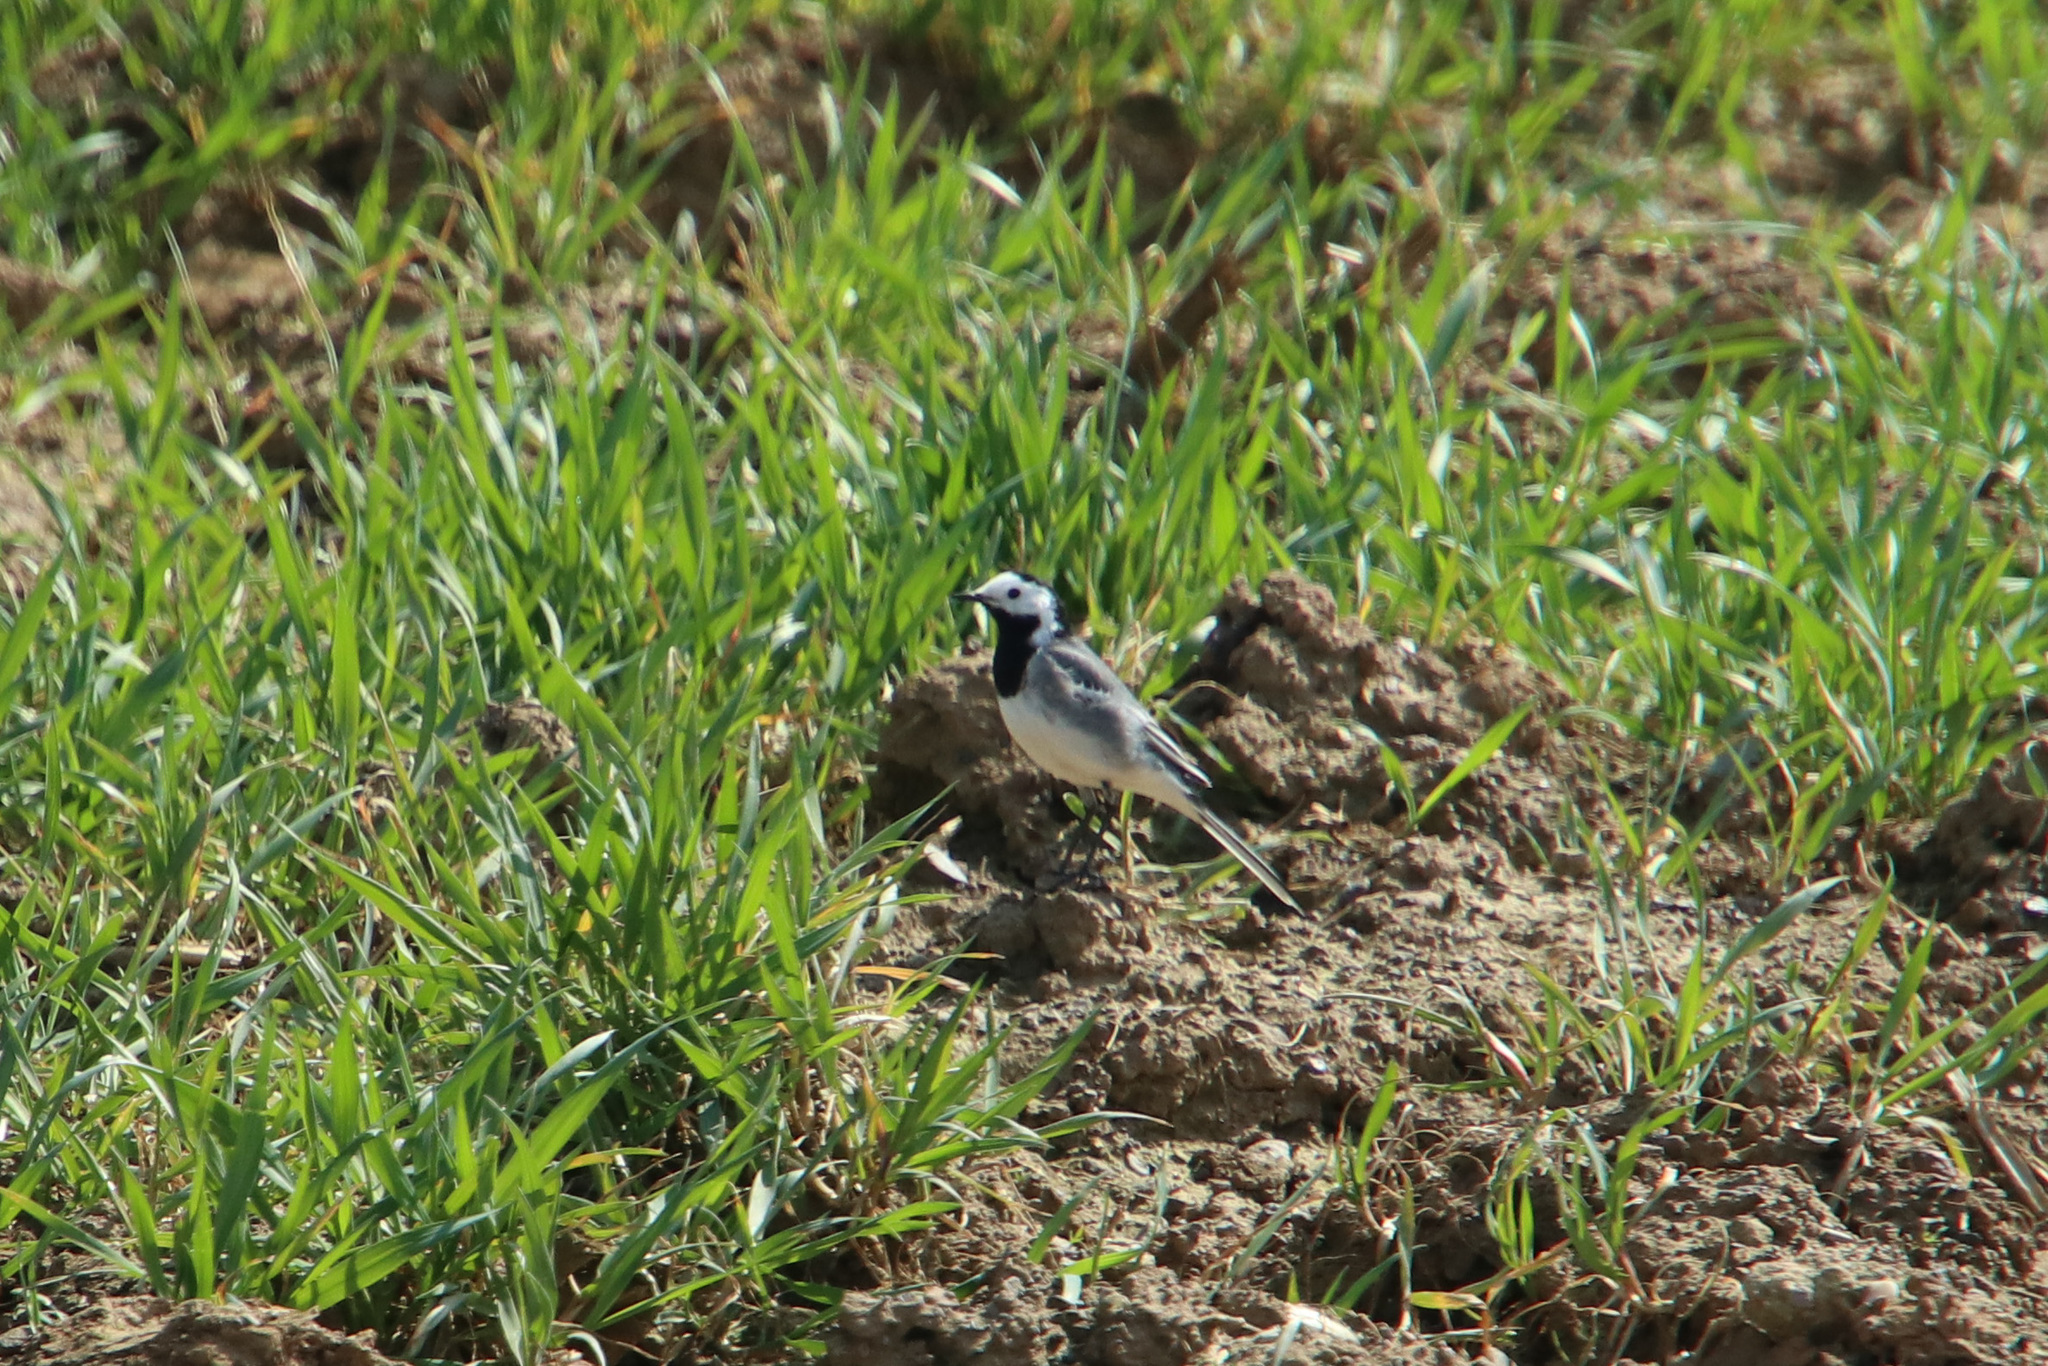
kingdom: Animalia
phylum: Chordata
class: Aves
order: Passeriformes
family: Motacillidae
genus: Motacilla
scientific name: Motacilla alba
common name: White wagtail
